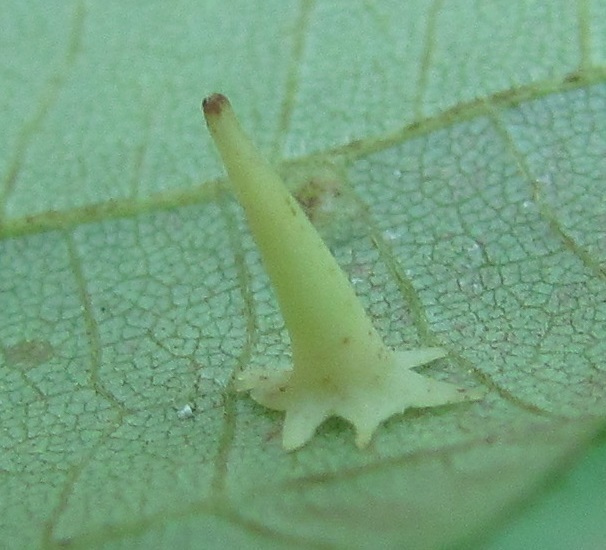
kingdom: Animalia
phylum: Arthropoda
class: Insecta
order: Diptera
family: Cecidomyiidae
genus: Caryomyia
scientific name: Caryomyia stellata
